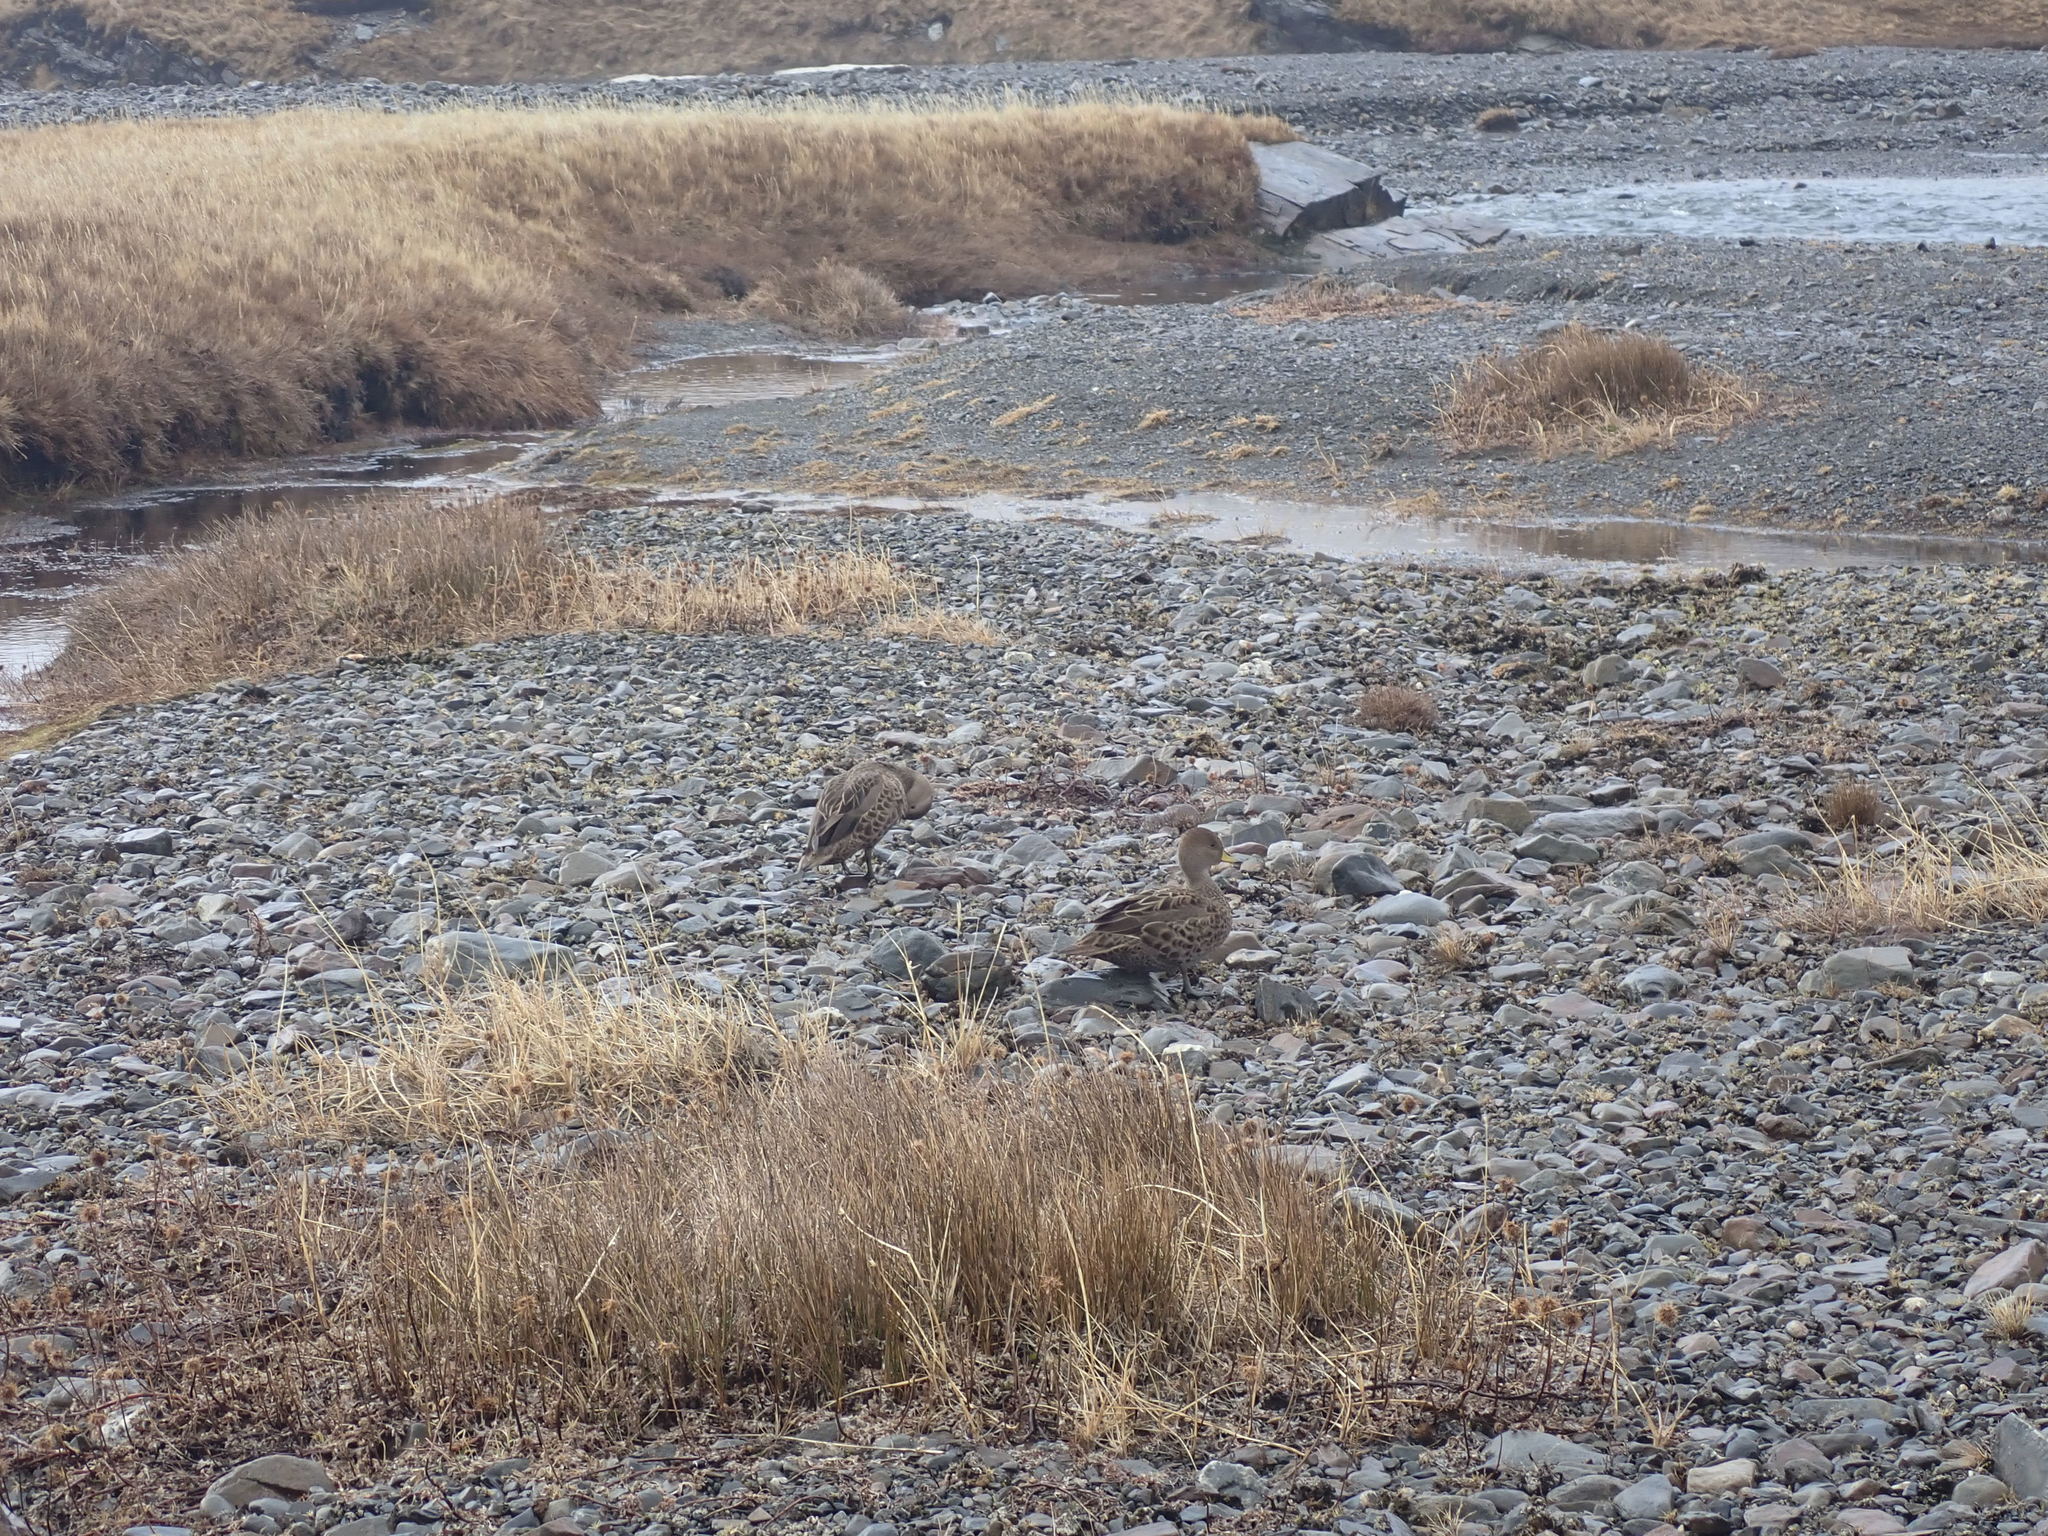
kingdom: Animalia
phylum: Chordata
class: Aves
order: Anseriformes
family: Anatidae
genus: Anas
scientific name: Anas georgica
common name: Yellow-billed pintail
